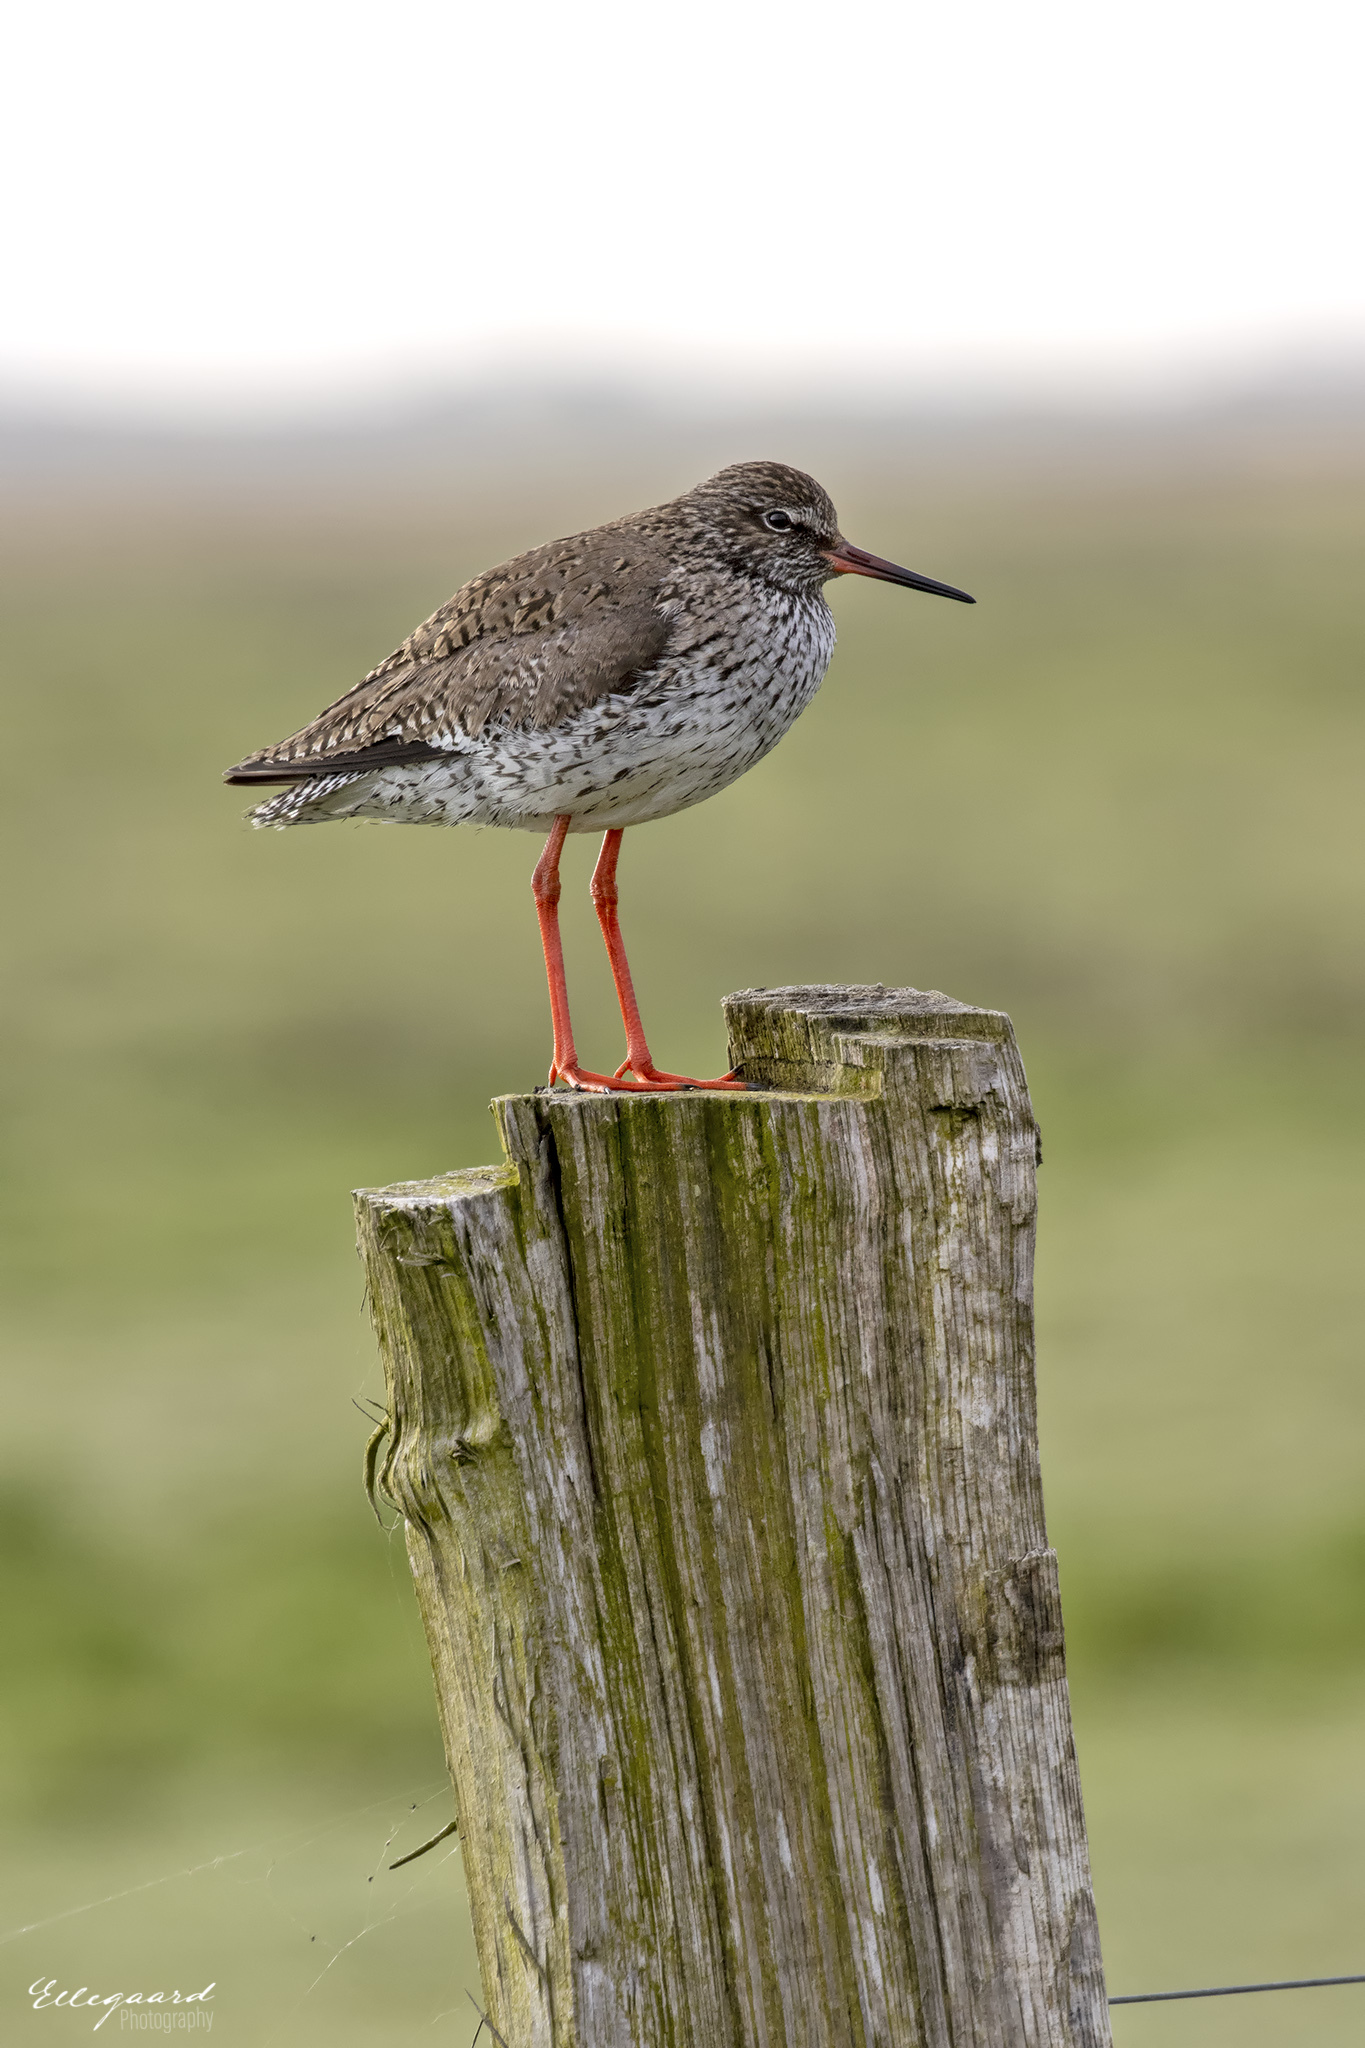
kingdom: Animalia
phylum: Chordata
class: Aves
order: Charadriiformes
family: Scolopacidae
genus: Tringa
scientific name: Tringa totanus
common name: Common redshank
